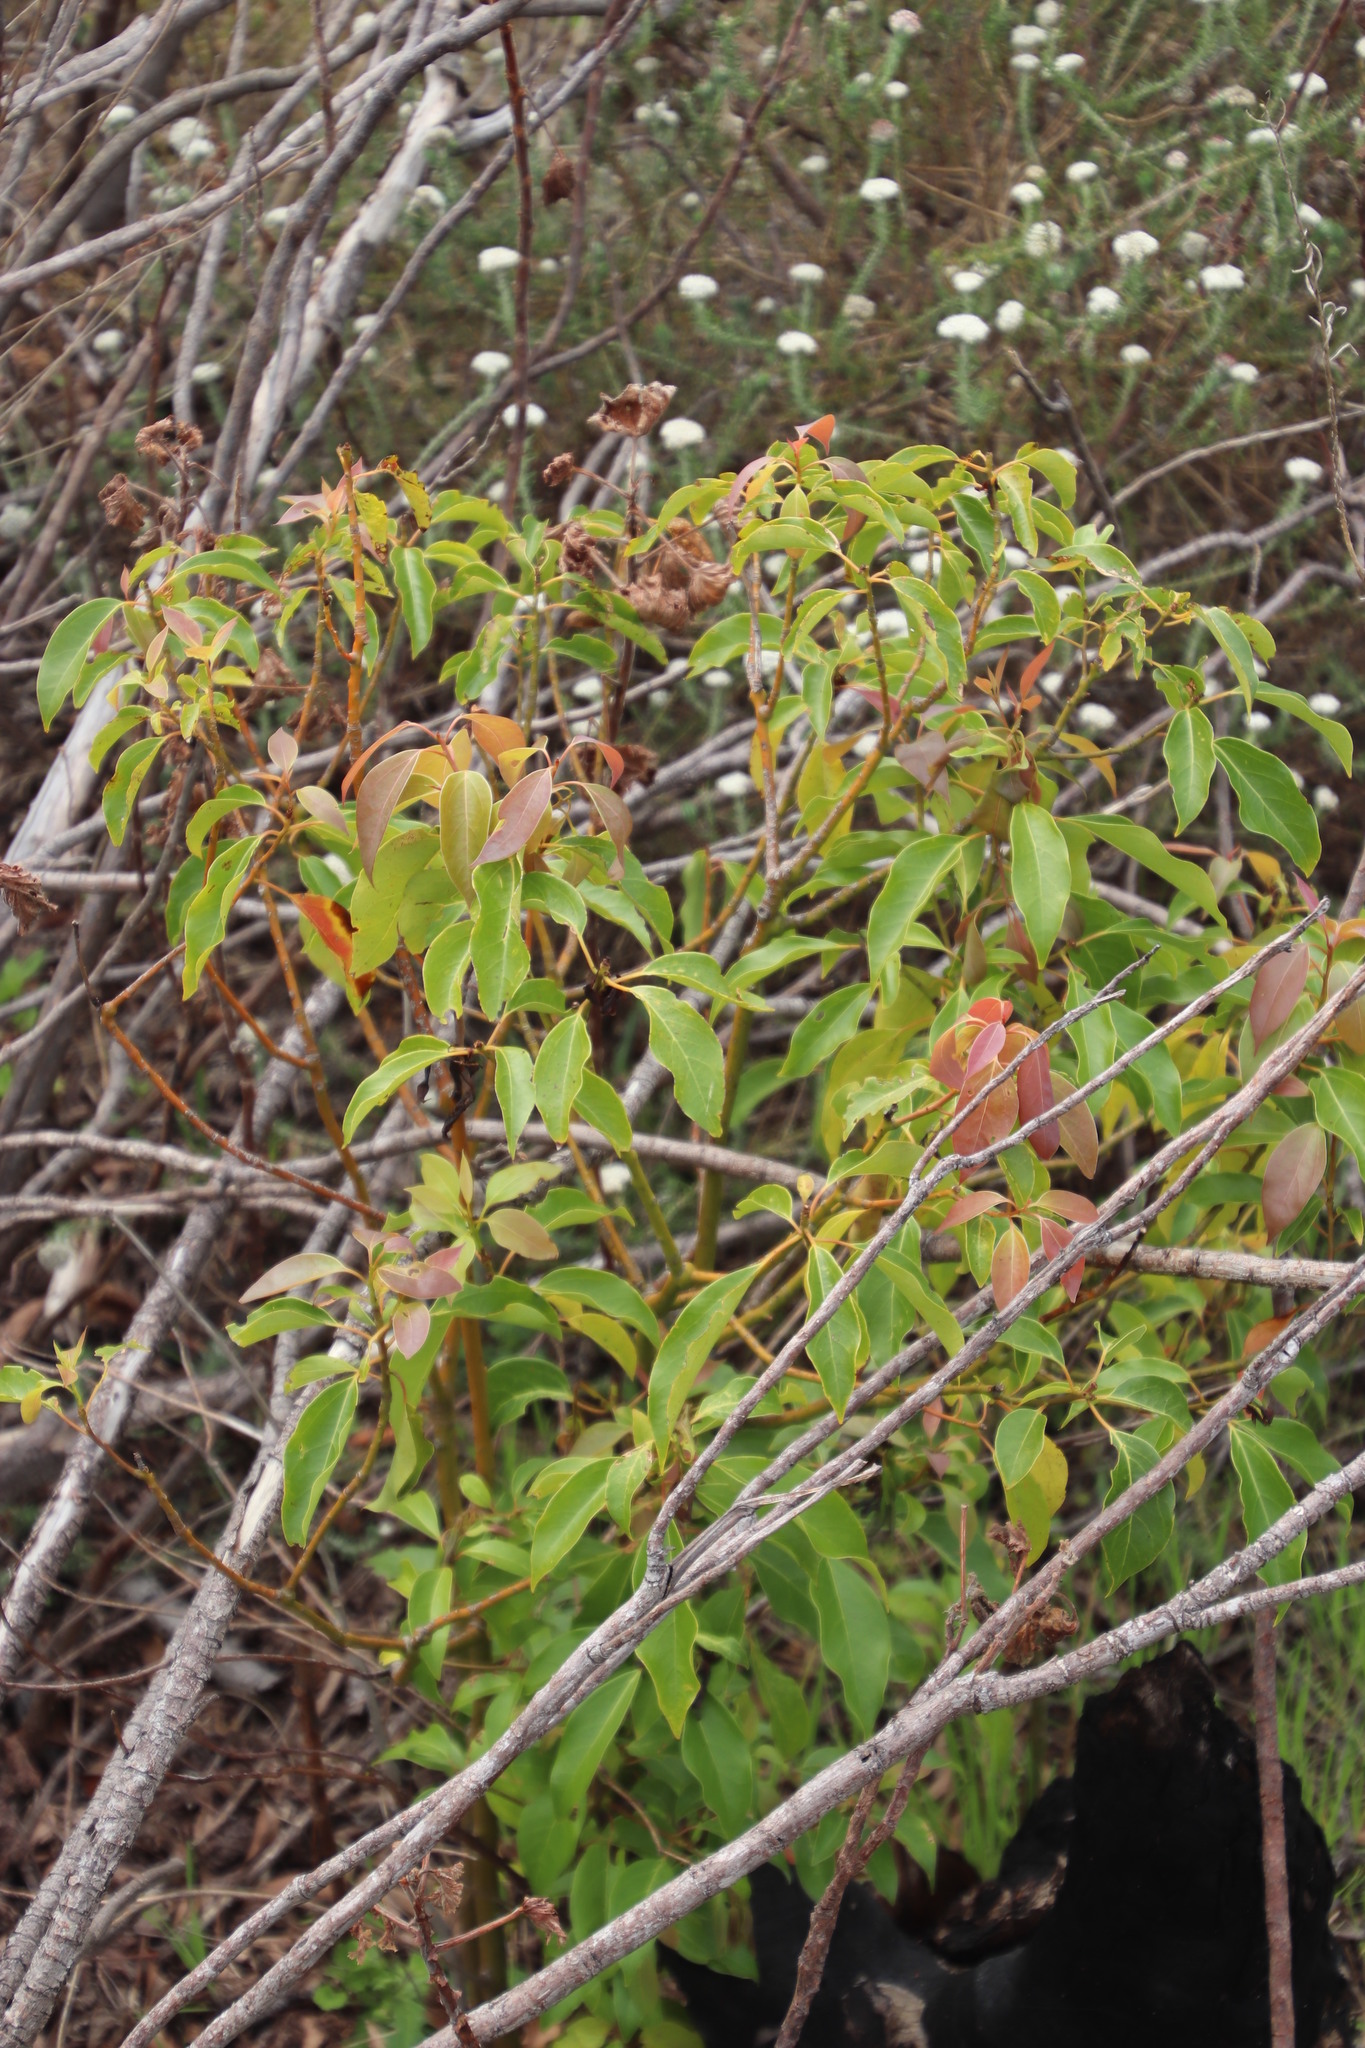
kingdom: Plantae
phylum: Tracheophyta
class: Magnoliopsida
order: Laurales
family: Lauraceae
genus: Cinnamomum
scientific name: Cinnamomum camphora
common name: Camphortree
